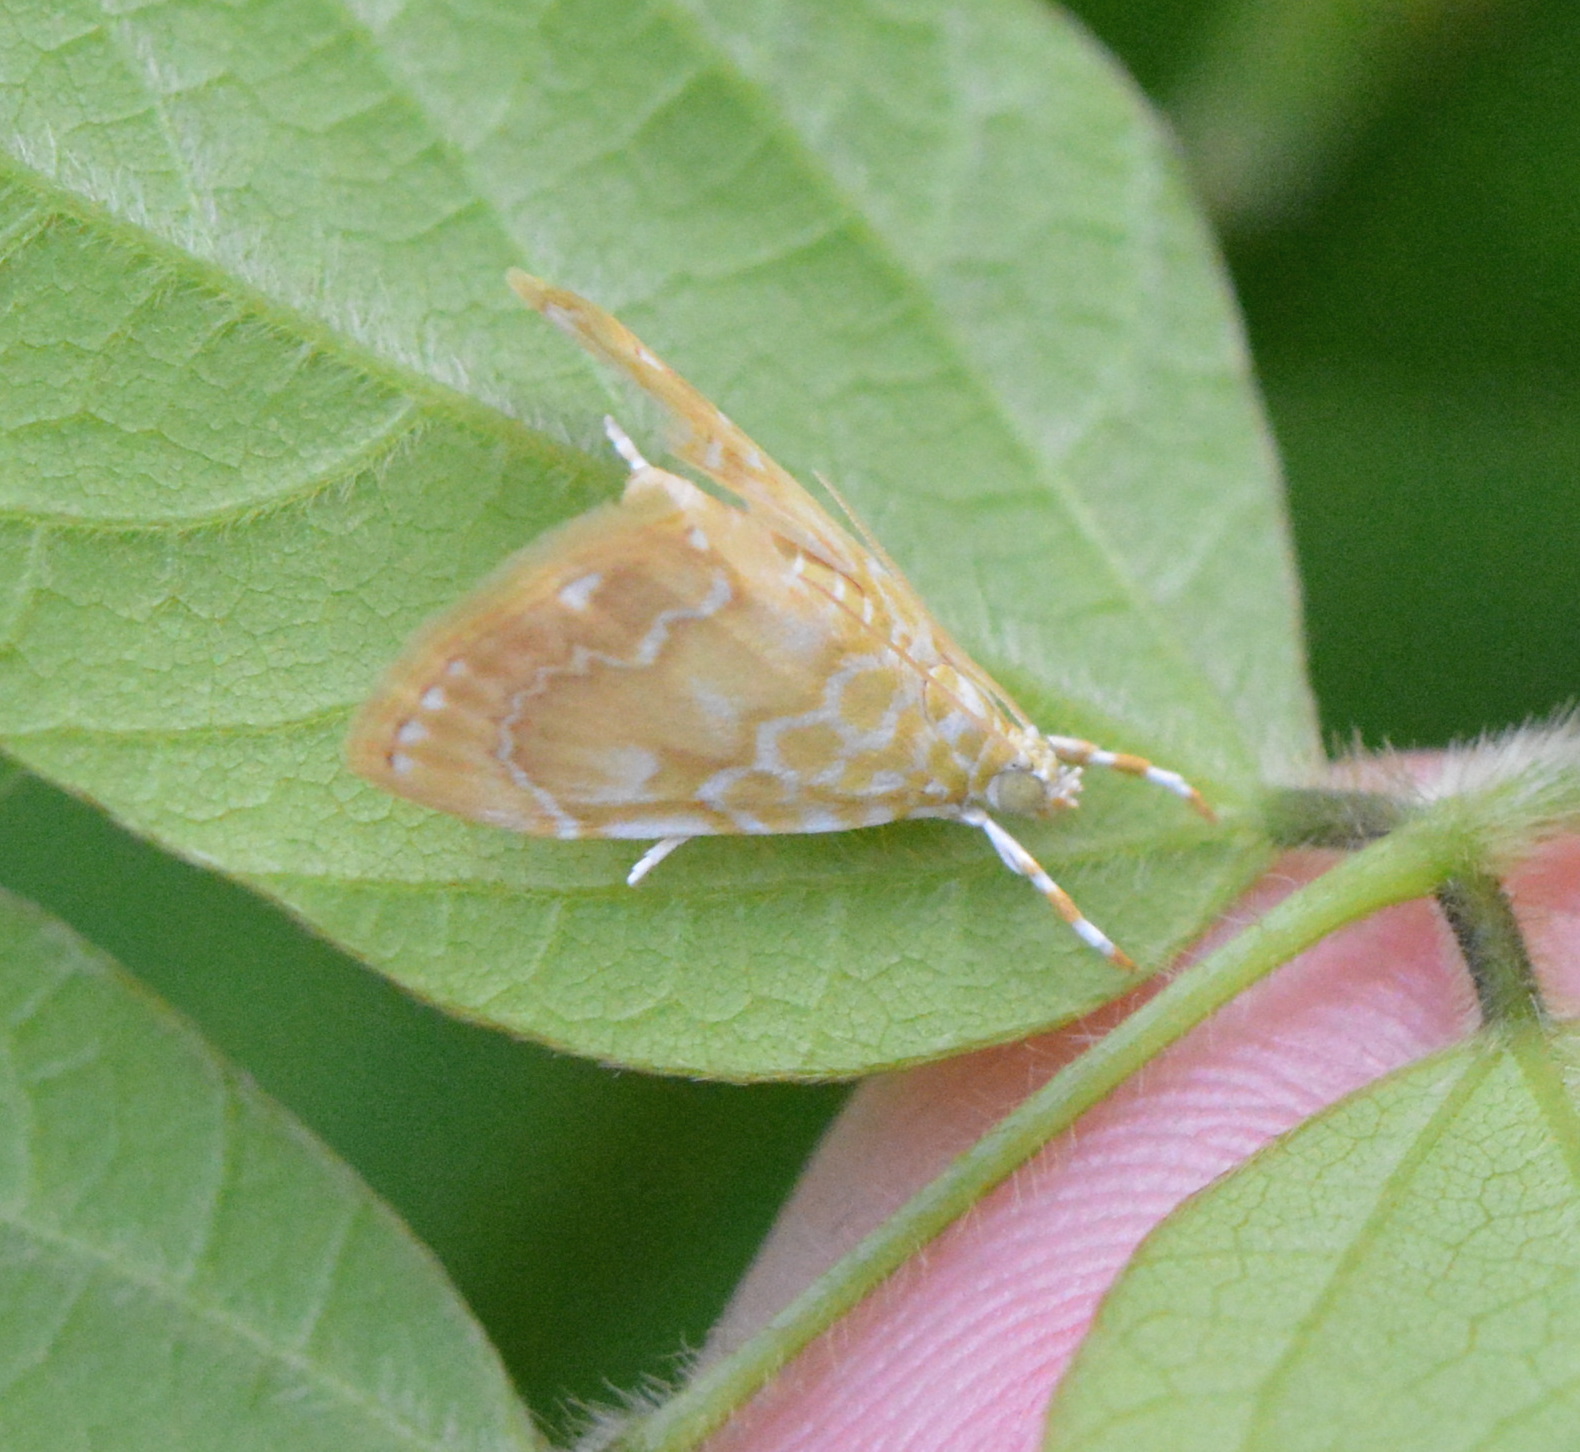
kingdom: Animalia
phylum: Arthropoda
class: Insecta
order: Lepidoptera
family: Crambidae
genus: Glaphyria
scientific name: Glaphyria glaphyralis
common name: Common glaphyria moth
